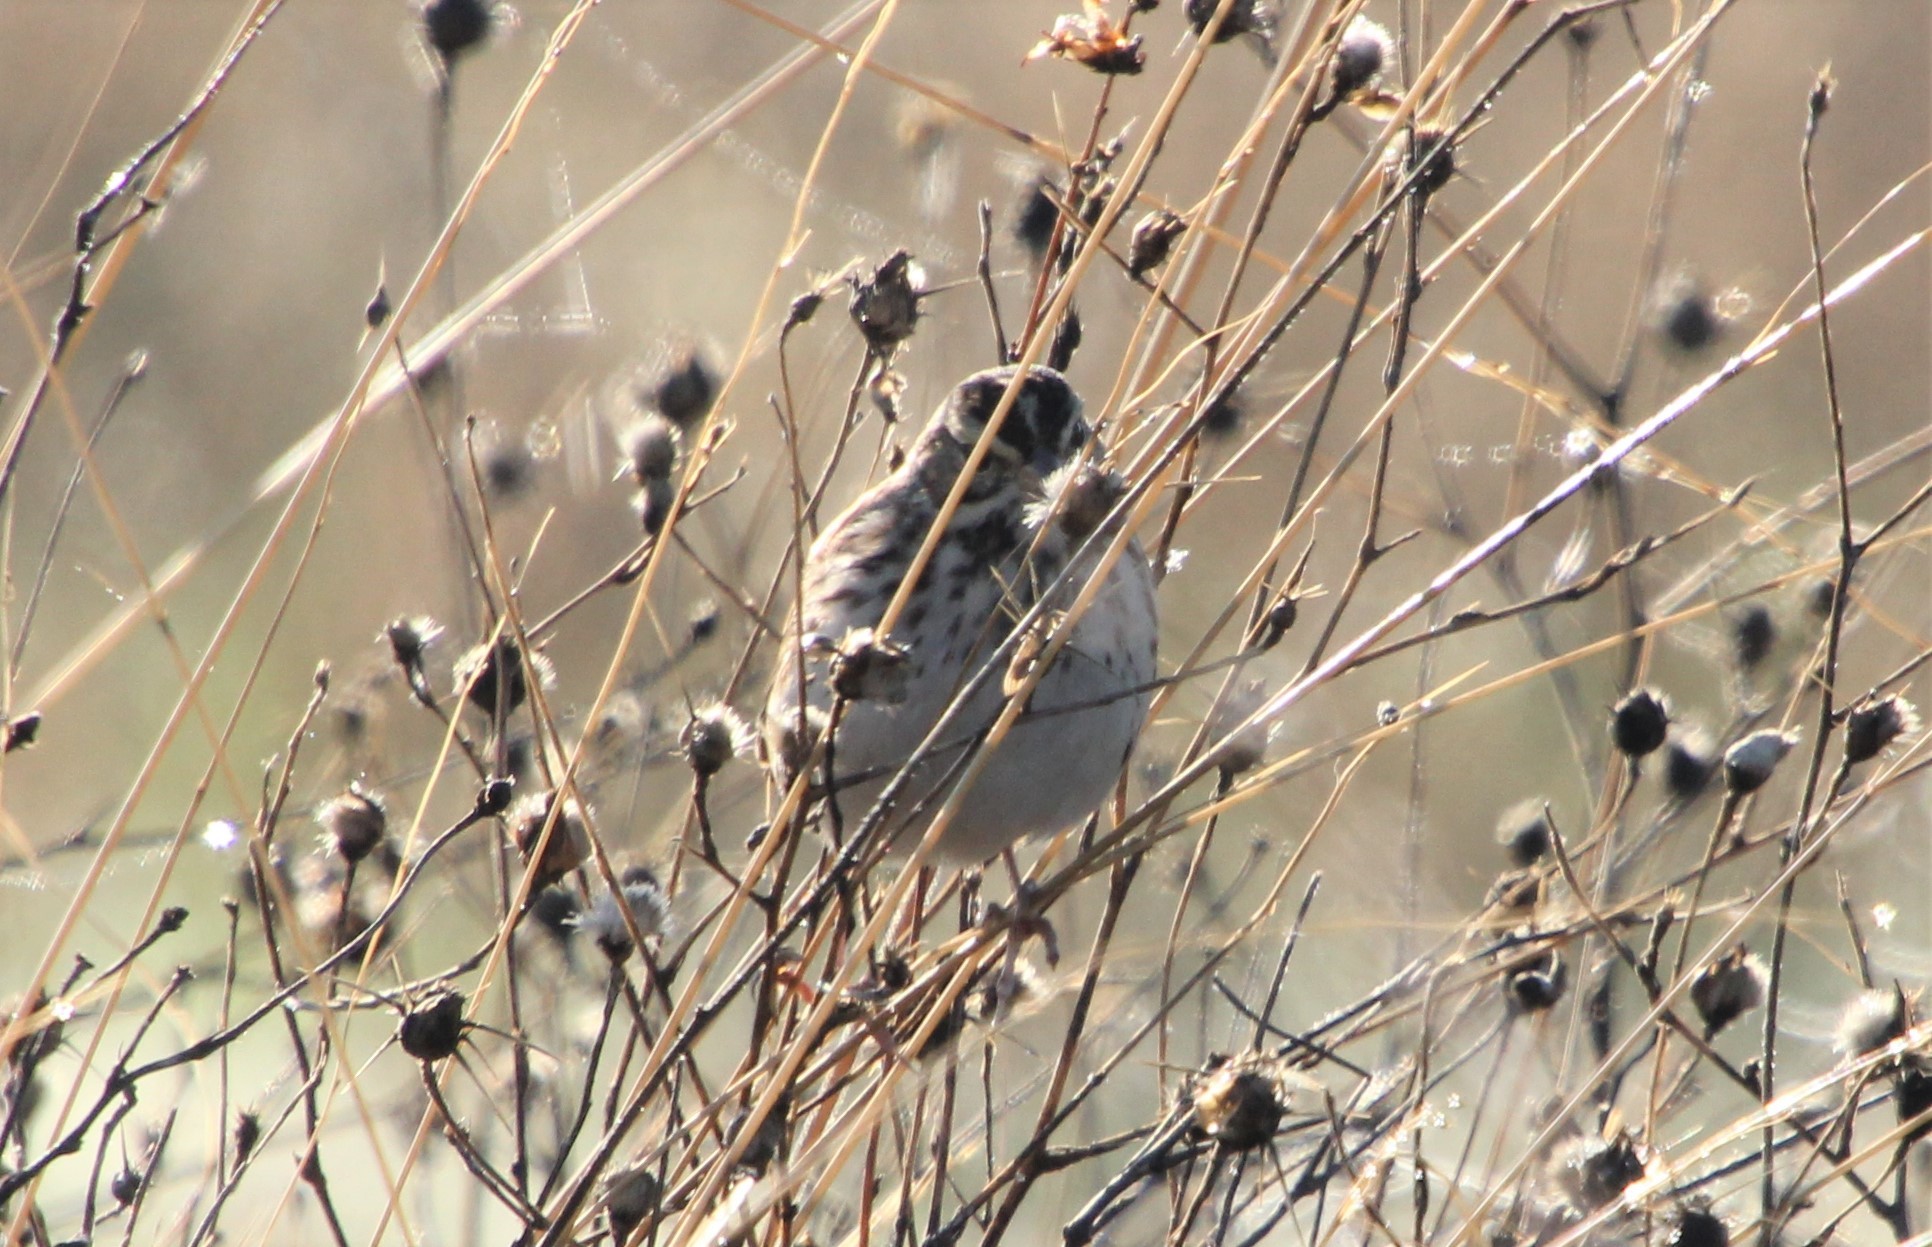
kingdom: Animalia
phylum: Chordata
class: Aves
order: Passeriformes
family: Passerellidae
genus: Passerculus
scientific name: Passerculus sandwichensis
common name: Savannah sparrow
